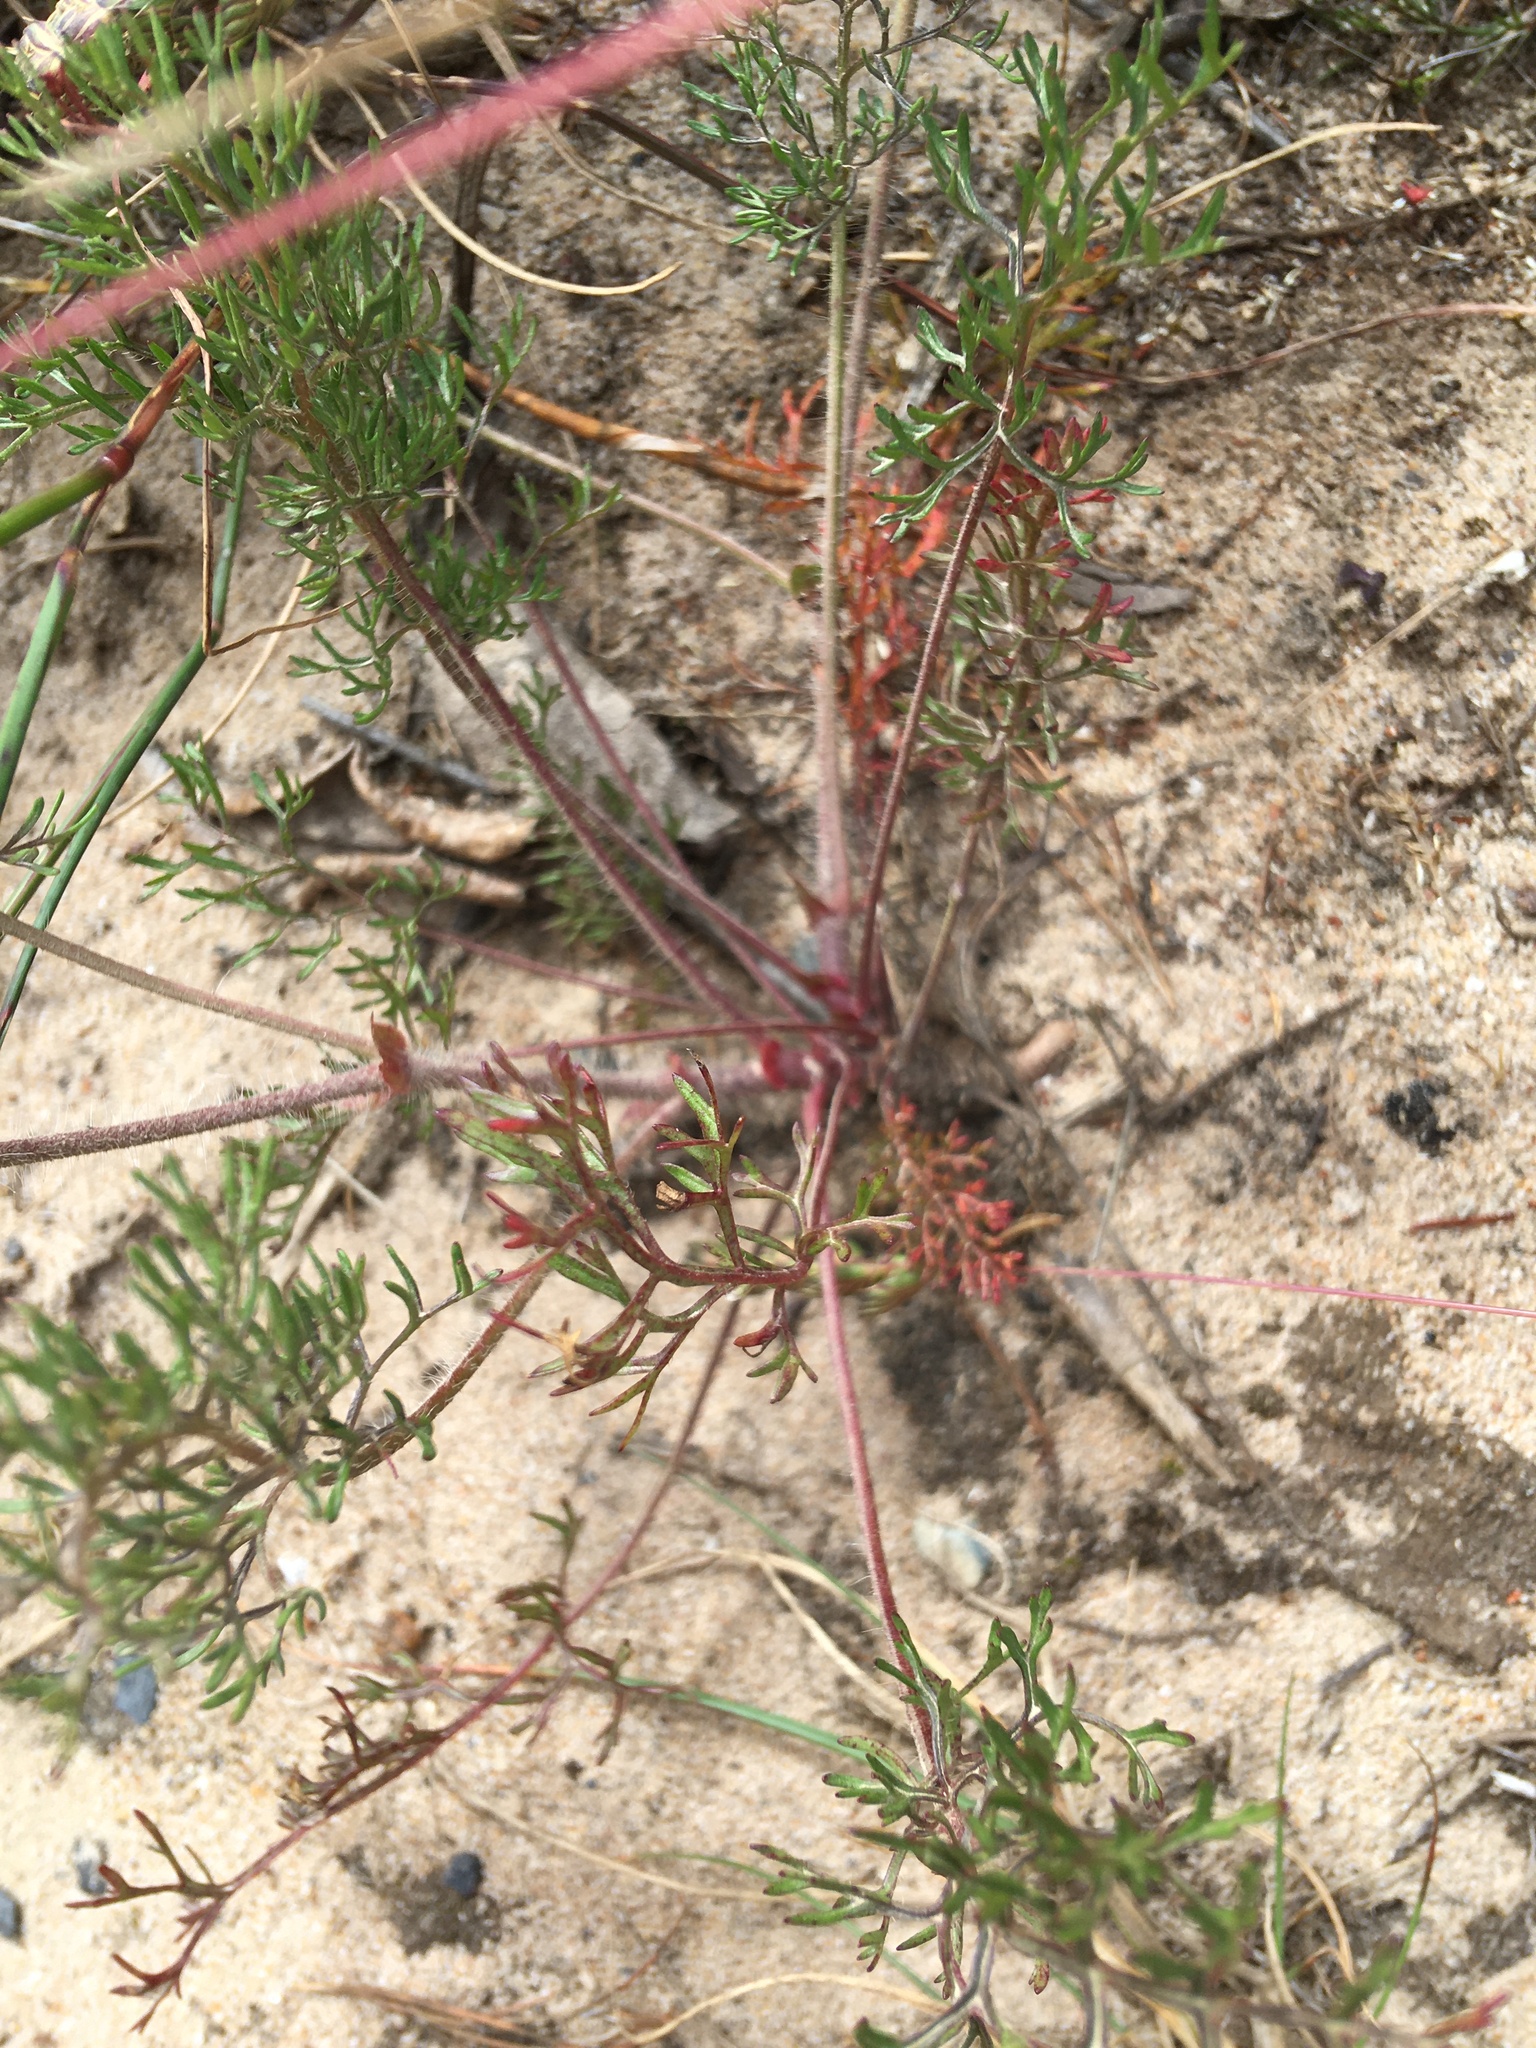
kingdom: Plantae
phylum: Tracheophyta
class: Magnoliopsida
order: Geraniales
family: Geraniaceae
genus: Pelargonium
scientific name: Pelargonium myrrhifolium
